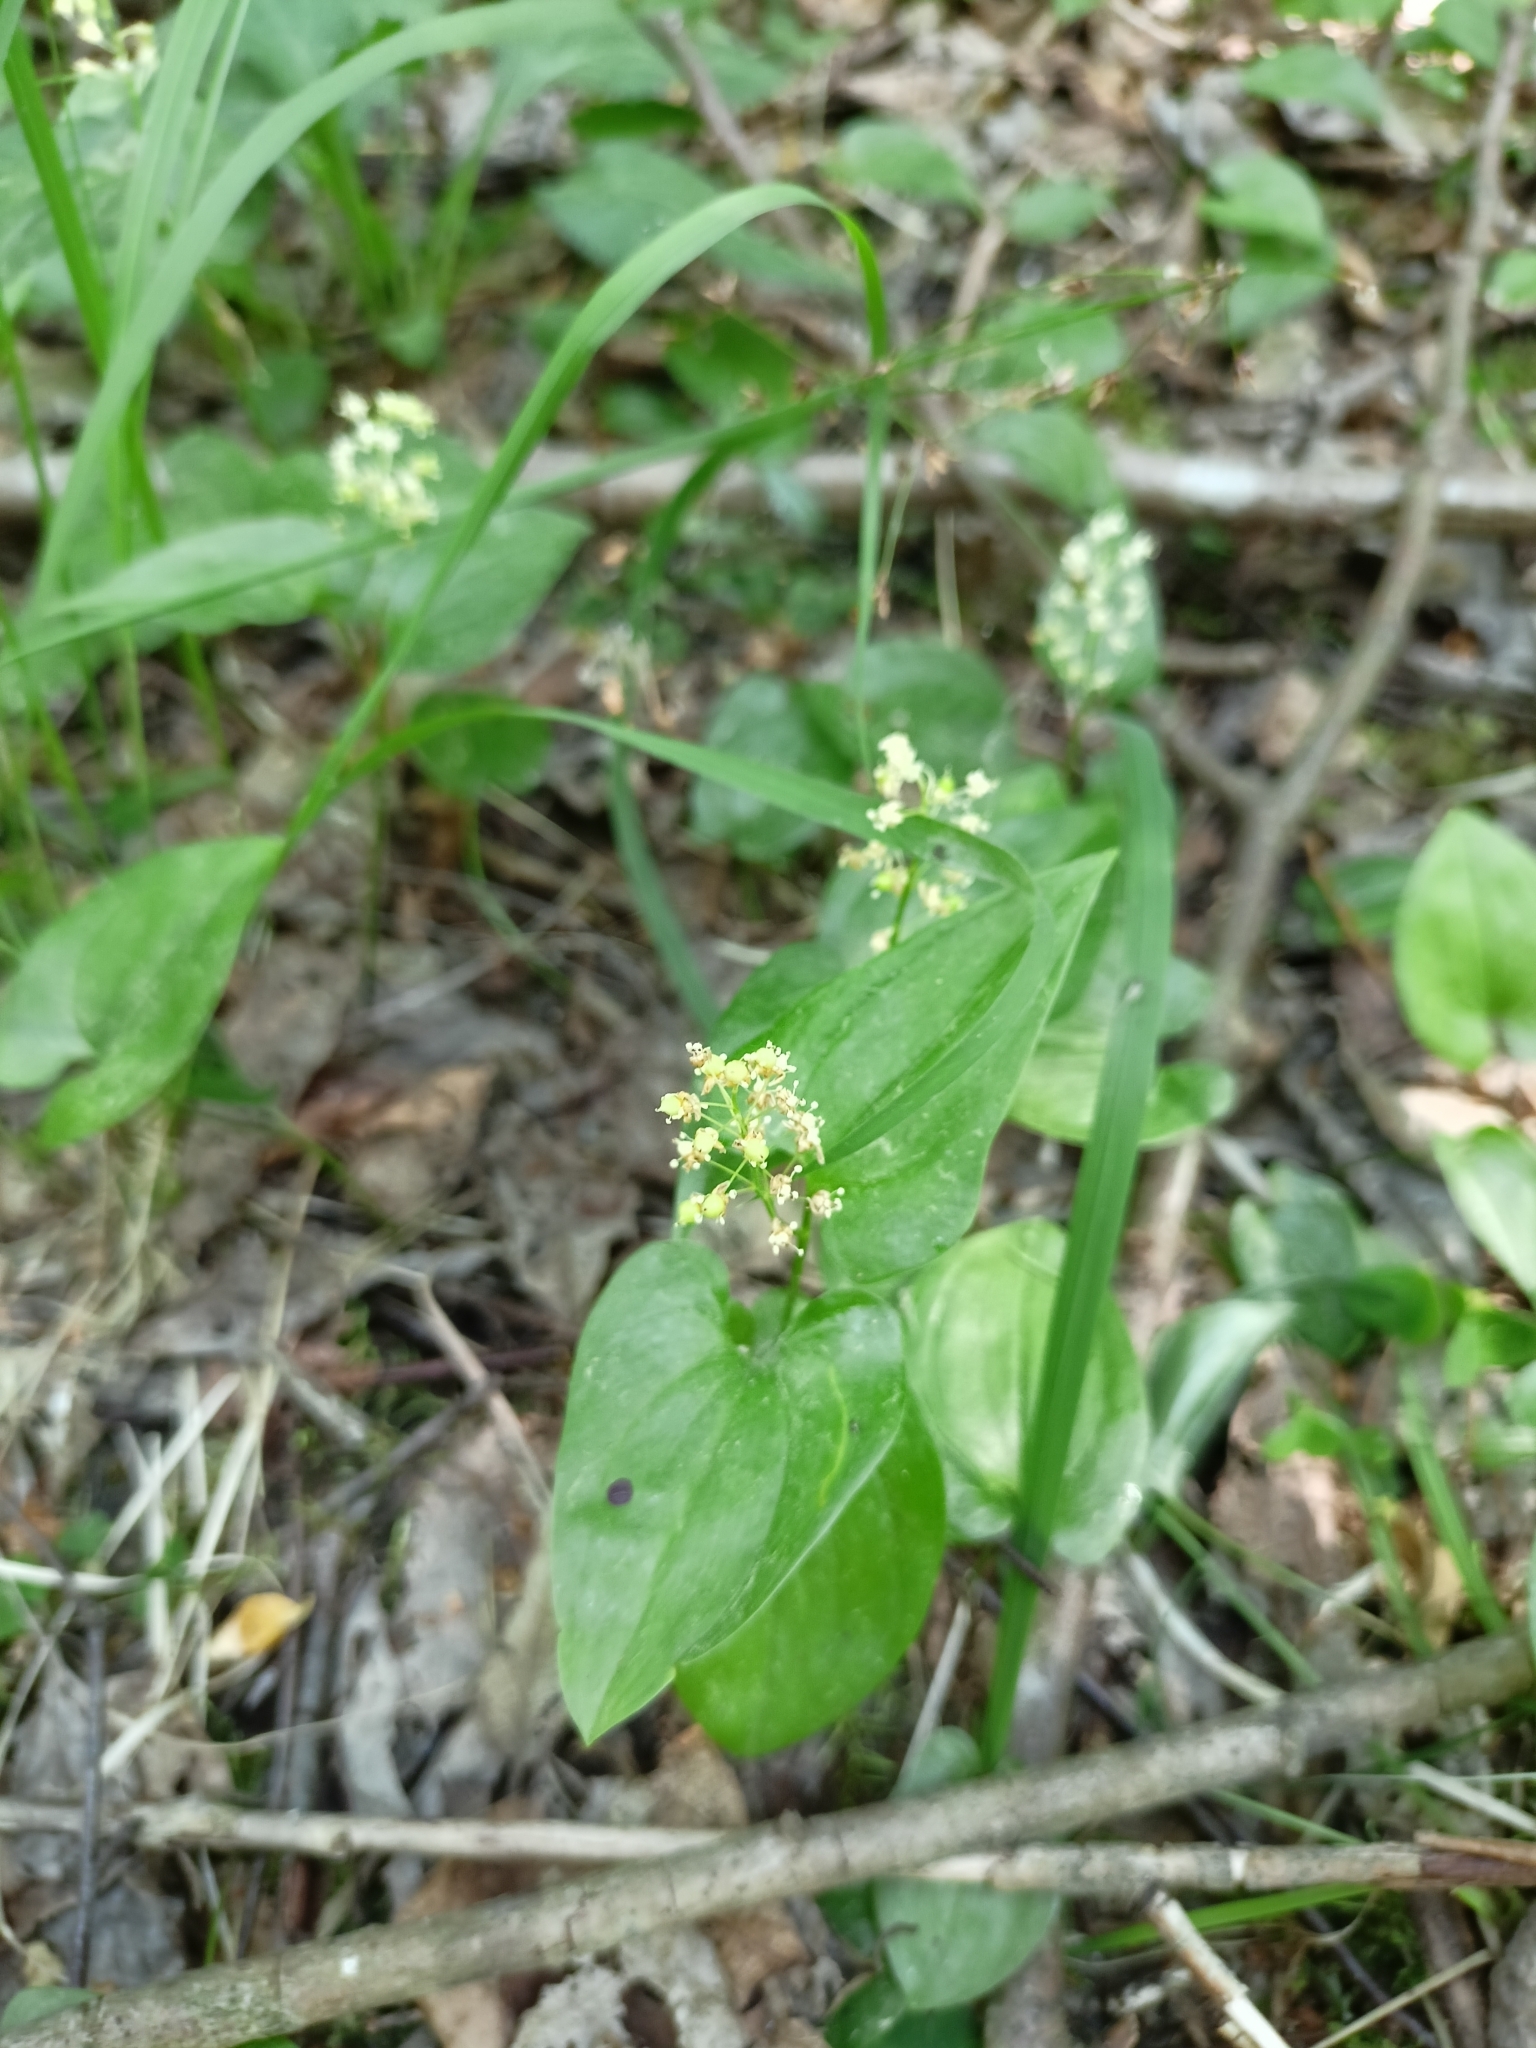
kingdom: Plantae
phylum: Tracheophyta
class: Liliopsida
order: Asparagales
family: Asparagaceae
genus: Maianthemum
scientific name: Maianthemum bifolium
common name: May lily
